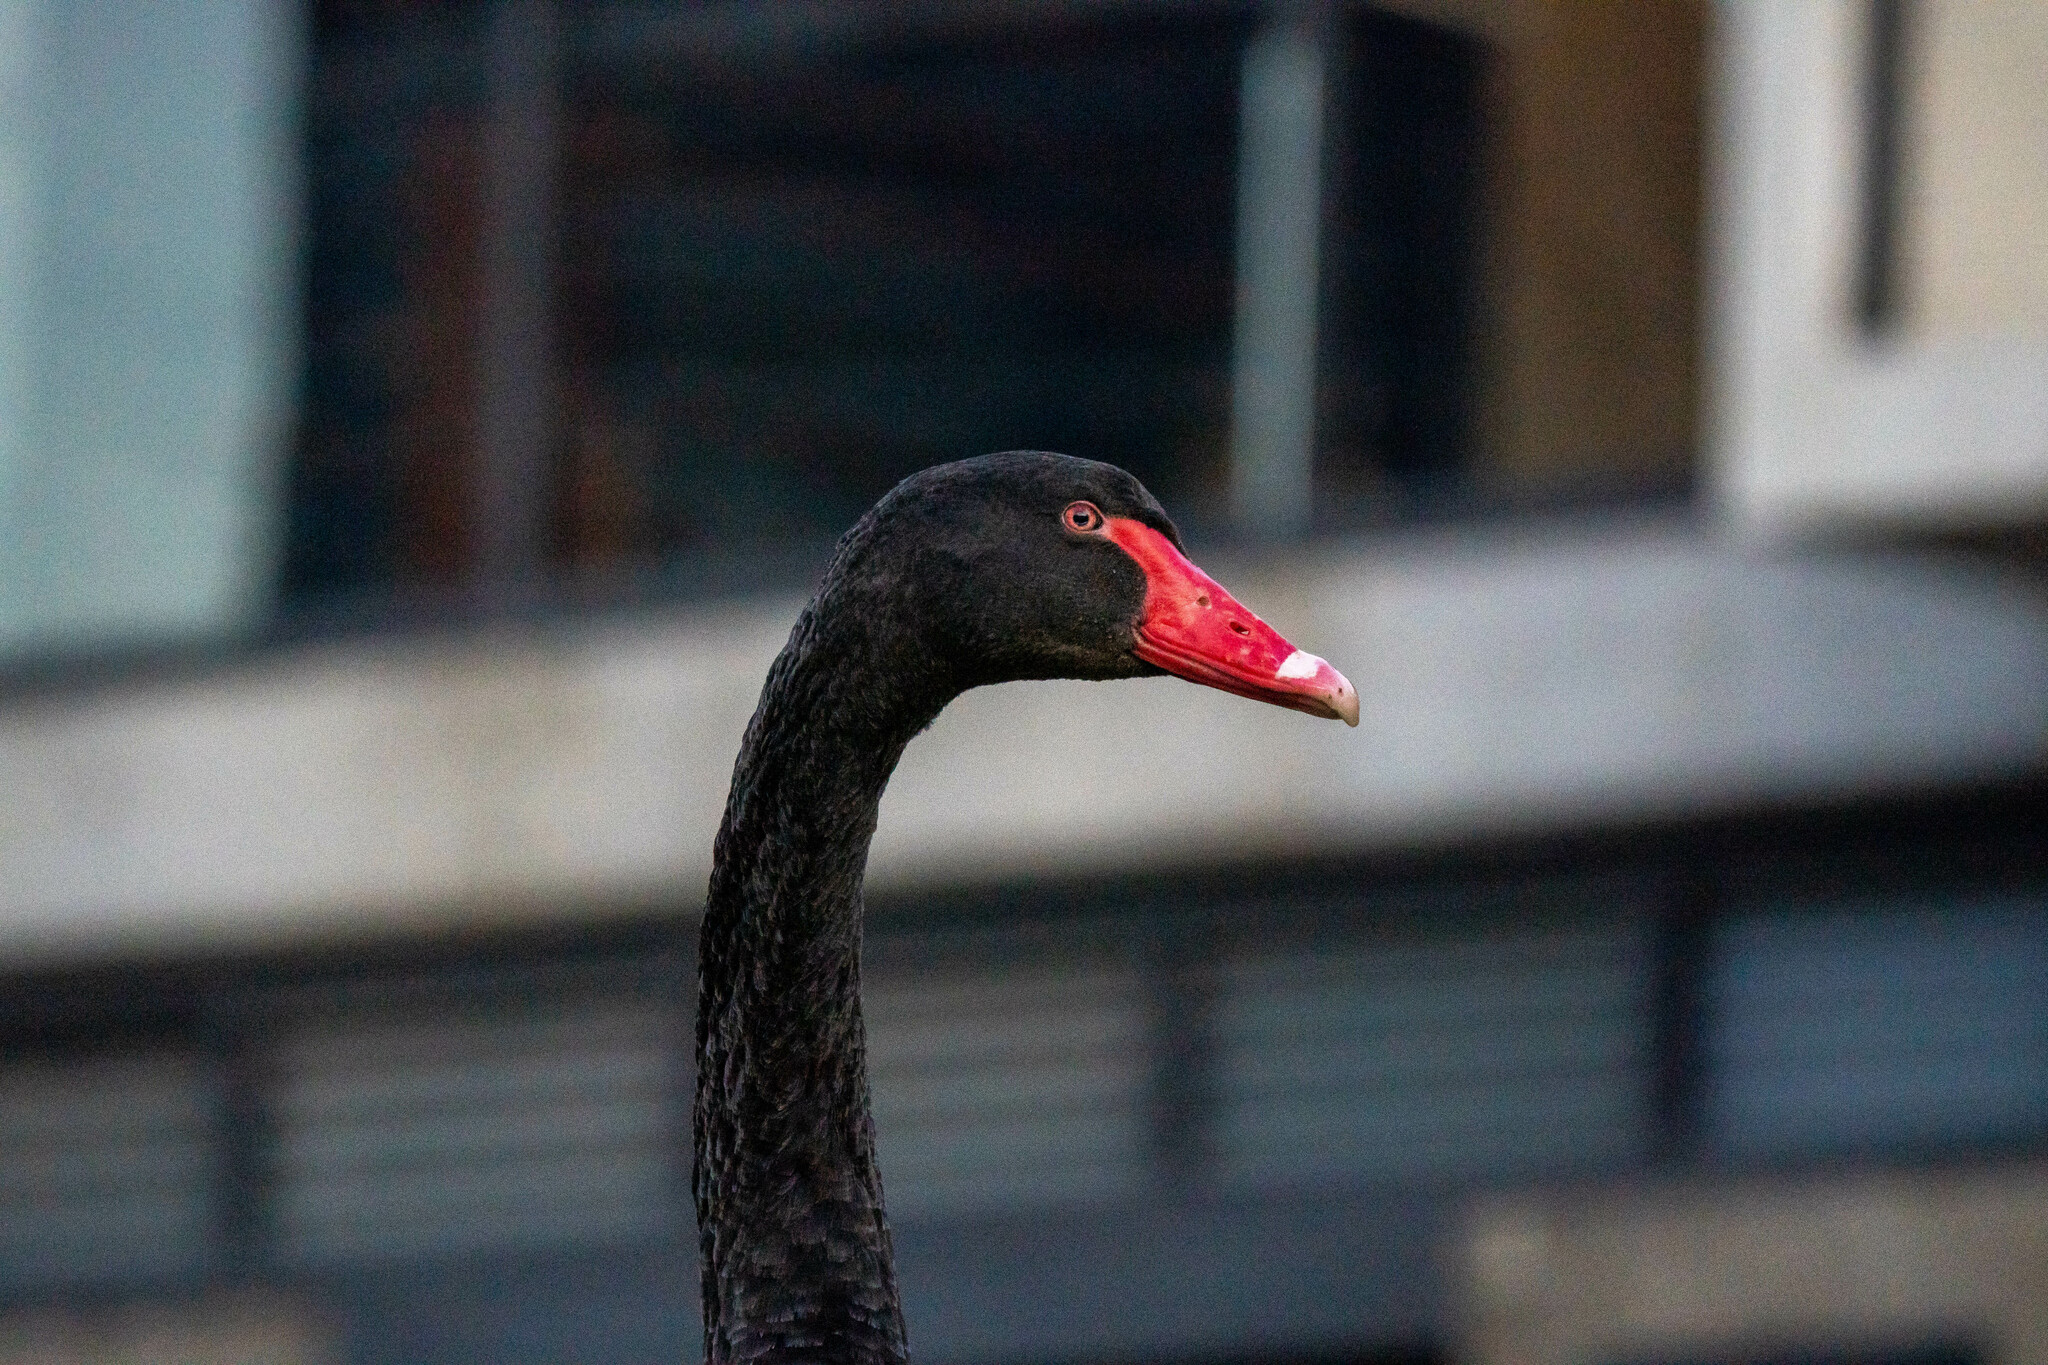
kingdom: Animalia
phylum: Chordata
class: Aves
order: Anseriformes
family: Anatidae
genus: Cygnus
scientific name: Cygnus atratus
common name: Black swan
